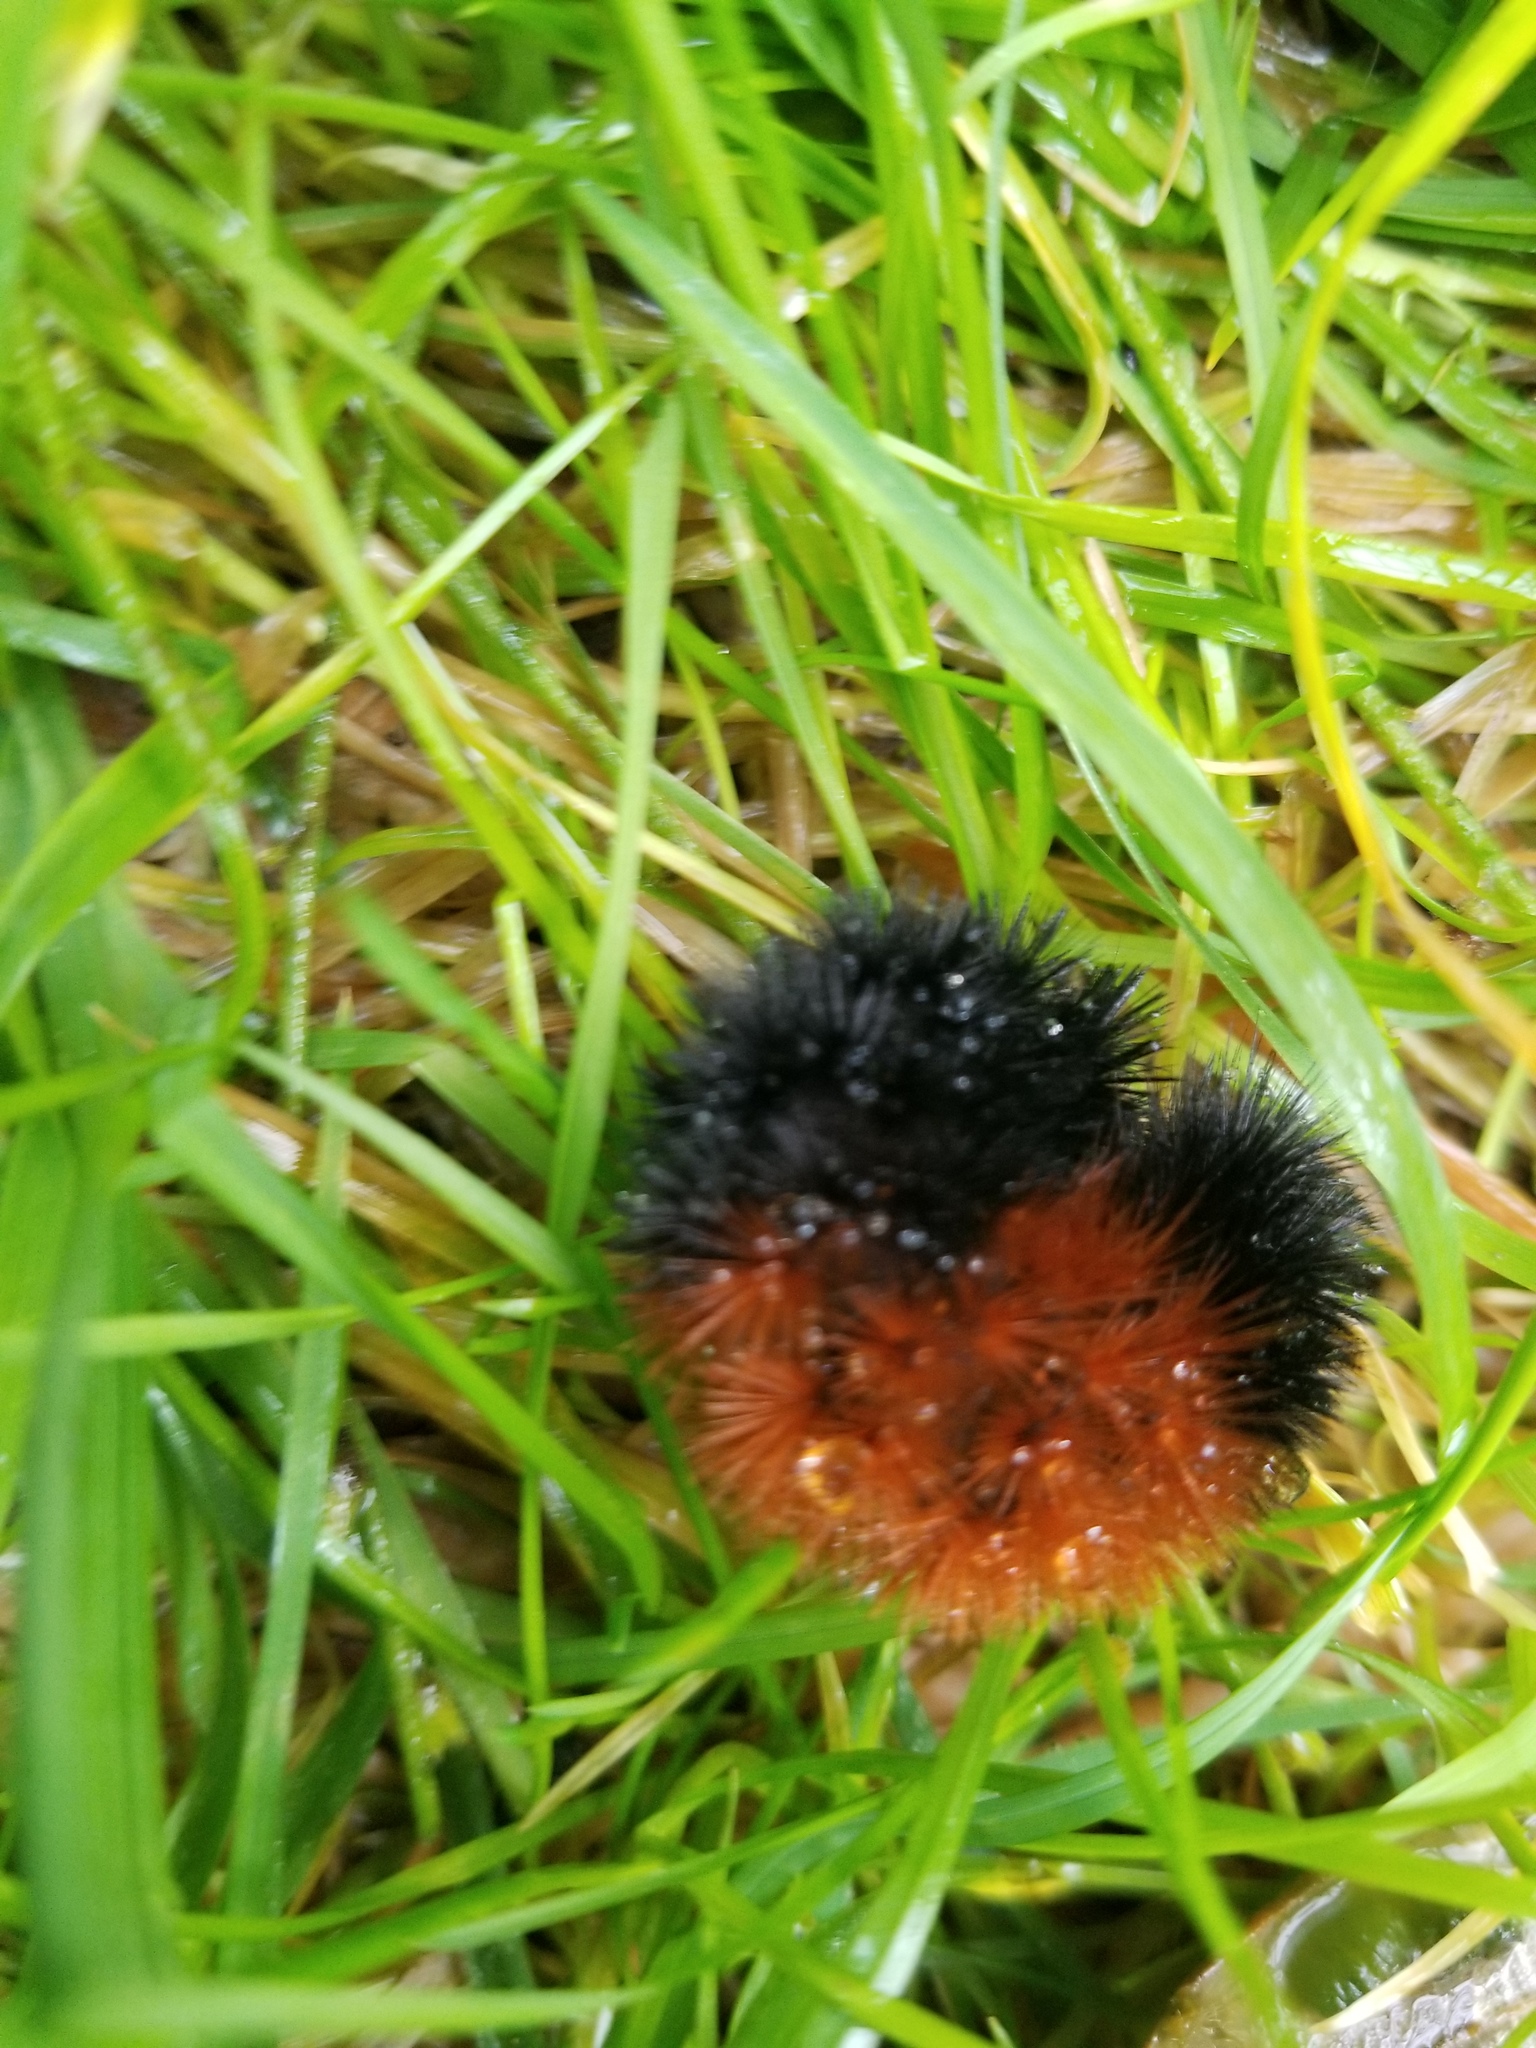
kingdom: Animalia
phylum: Arthropoda
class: Insecta
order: Lepidoptera
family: Erebidae
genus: Pyrrharctia
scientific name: Pyrrharctia isabella
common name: Isabella tiger moth
